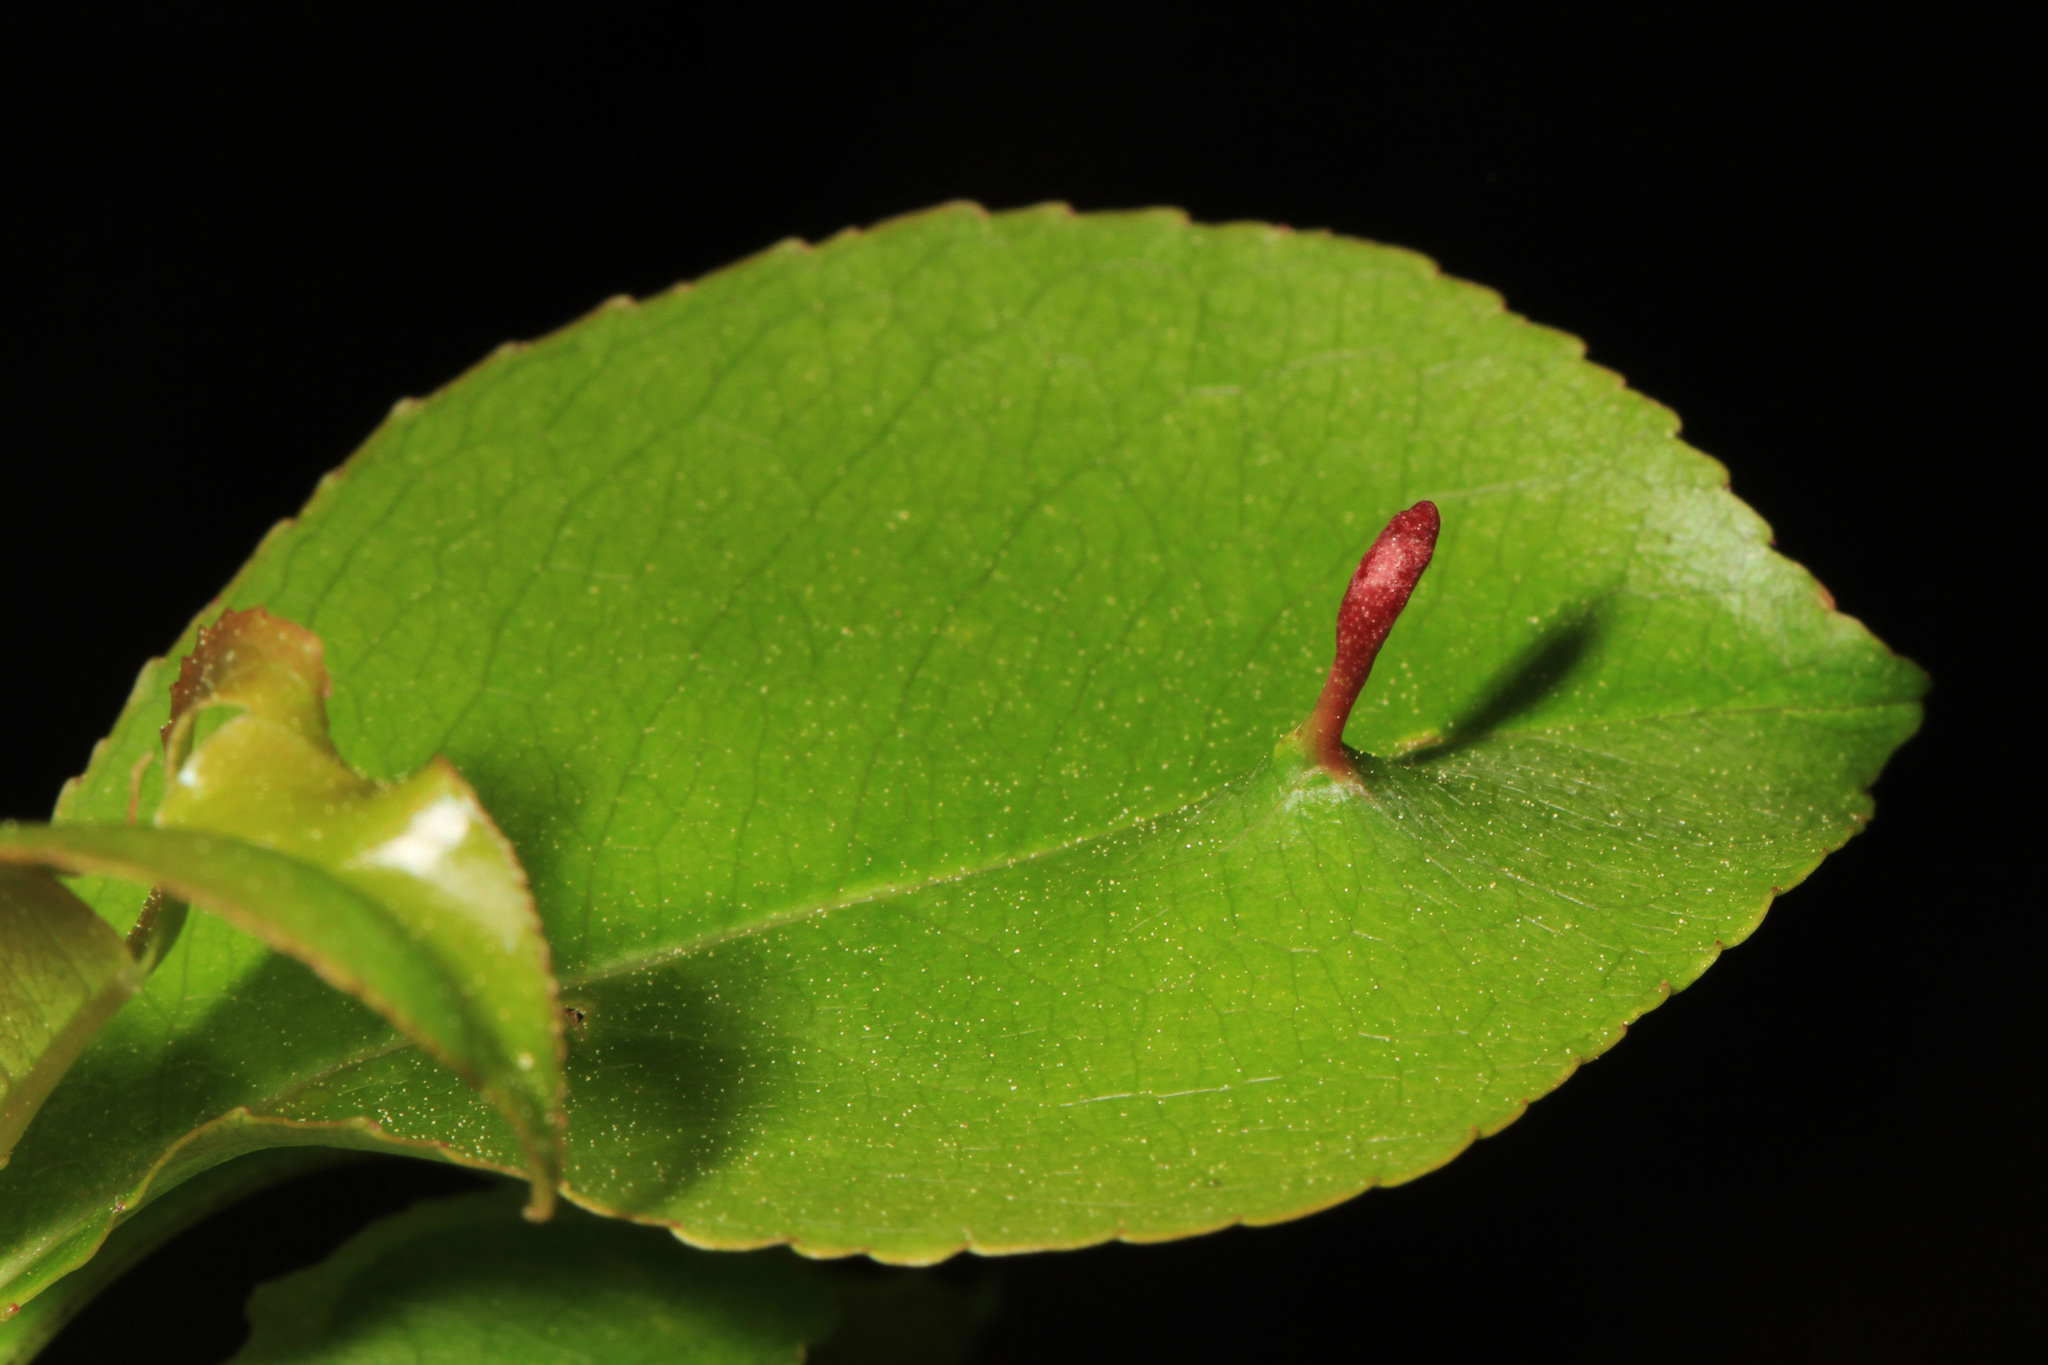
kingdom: Animalia
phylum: Arthropoda
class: Arachnida
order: Trombidiformes
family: Eriophyidae
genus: Eriophyes
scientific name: Eriophyes
